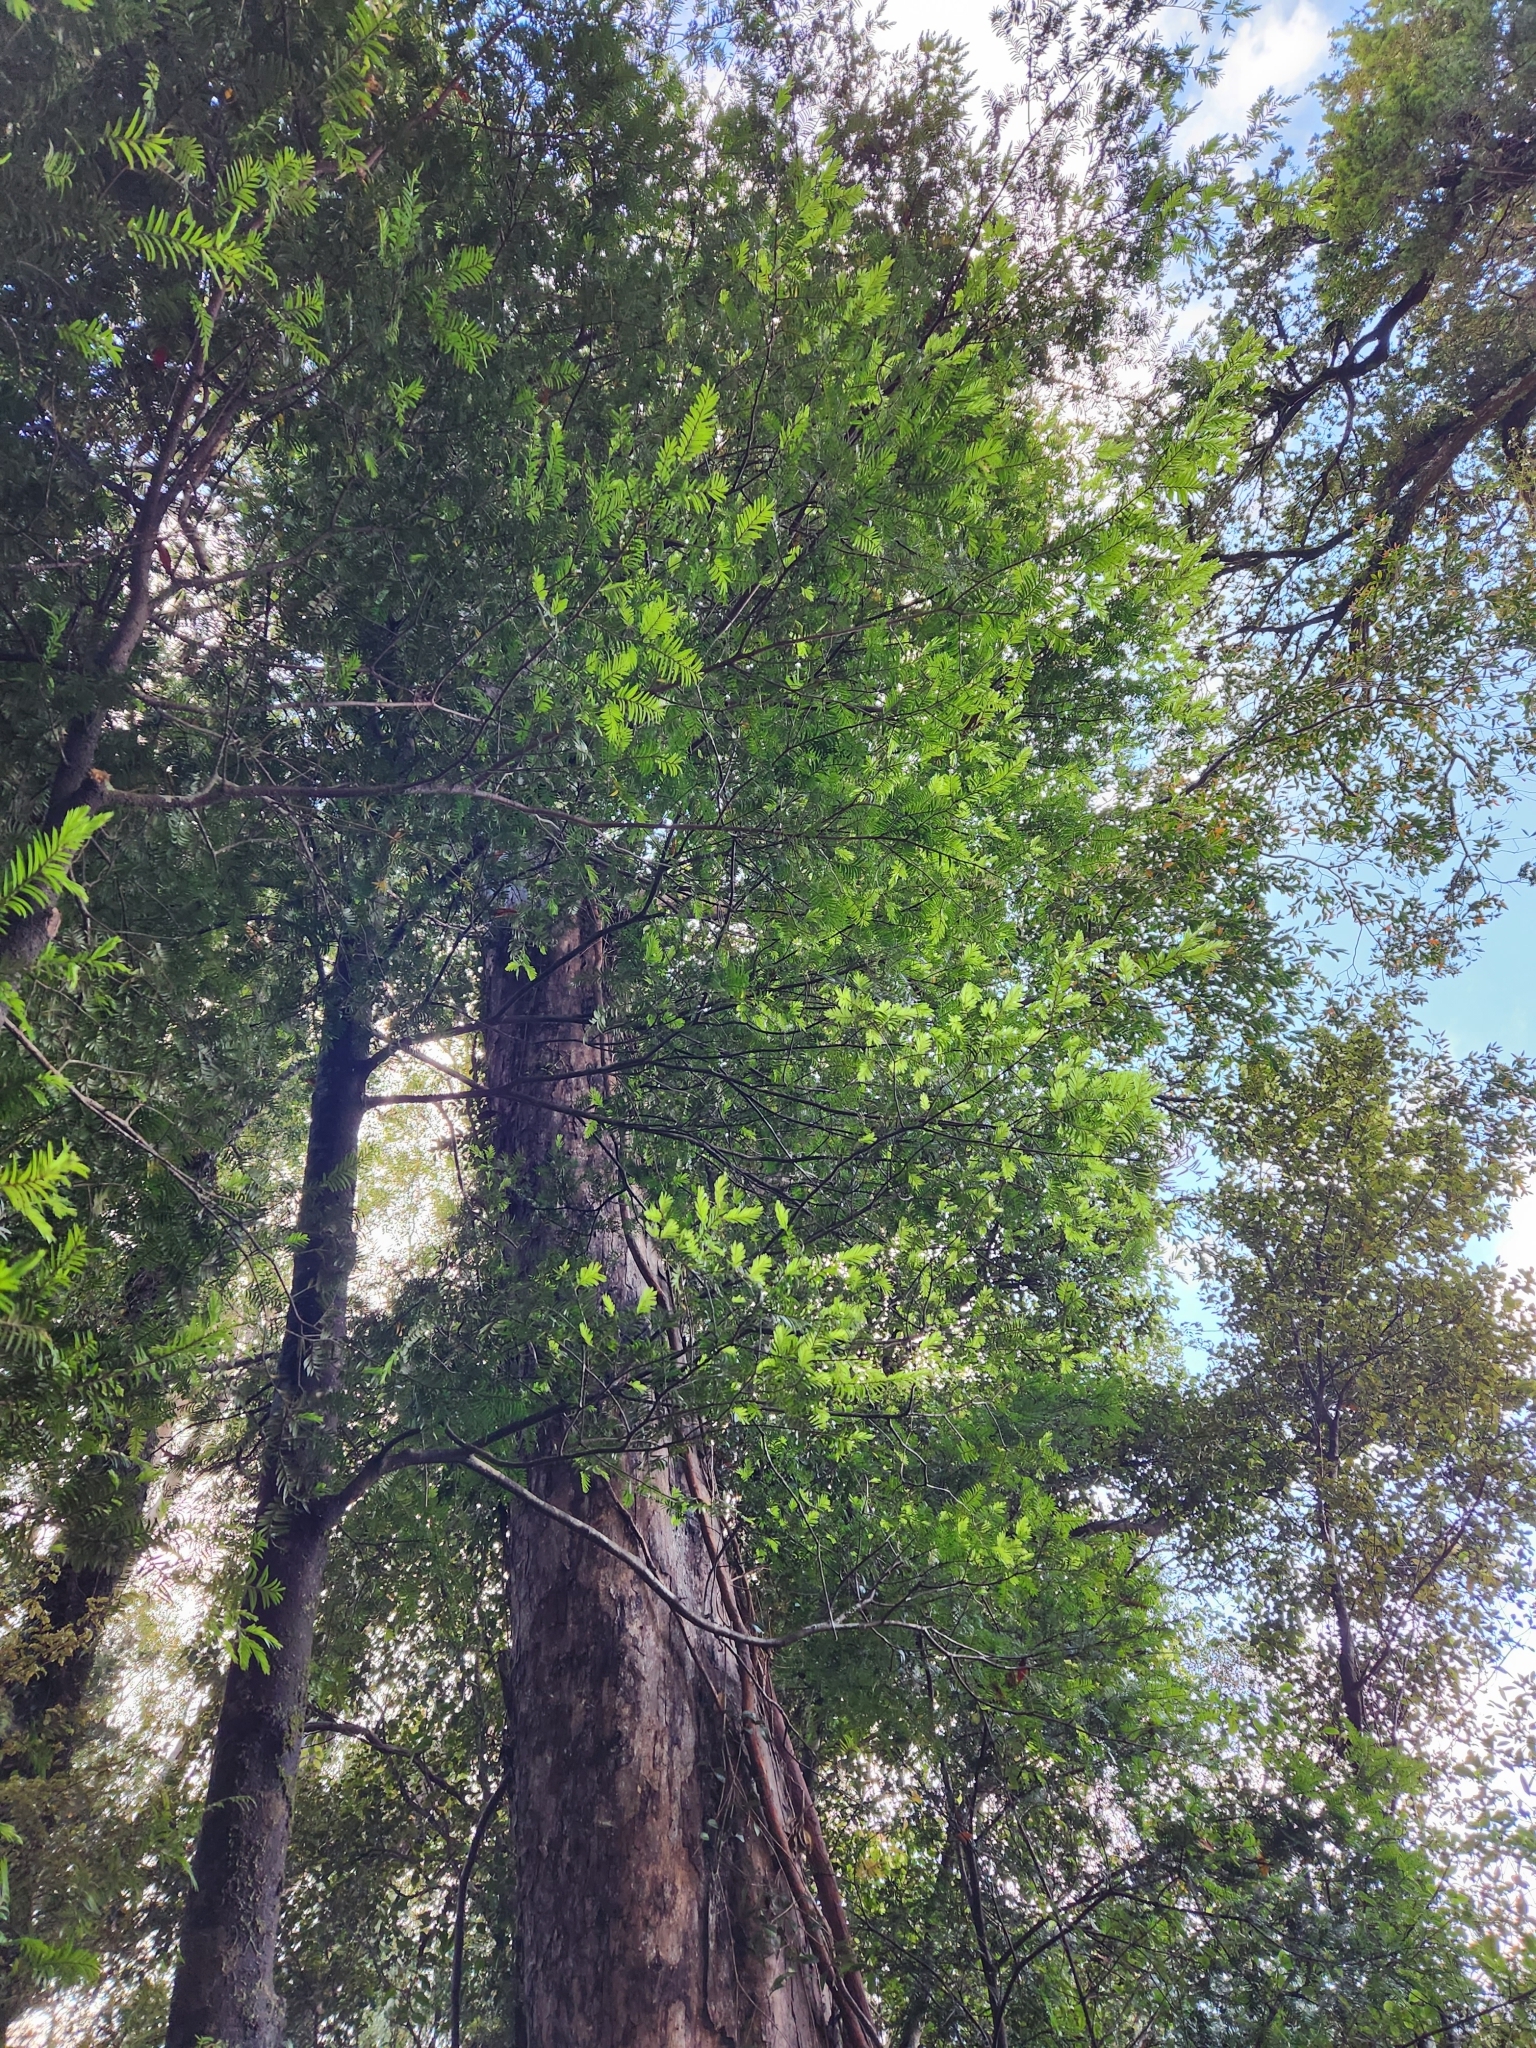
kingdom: Plantae
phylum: Tracheophyta
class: Pinopsida
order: Pinales
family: Podocarpaceae
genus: Prumnopitys
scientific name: Prumnopitys ferruginea
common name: Brown pine
